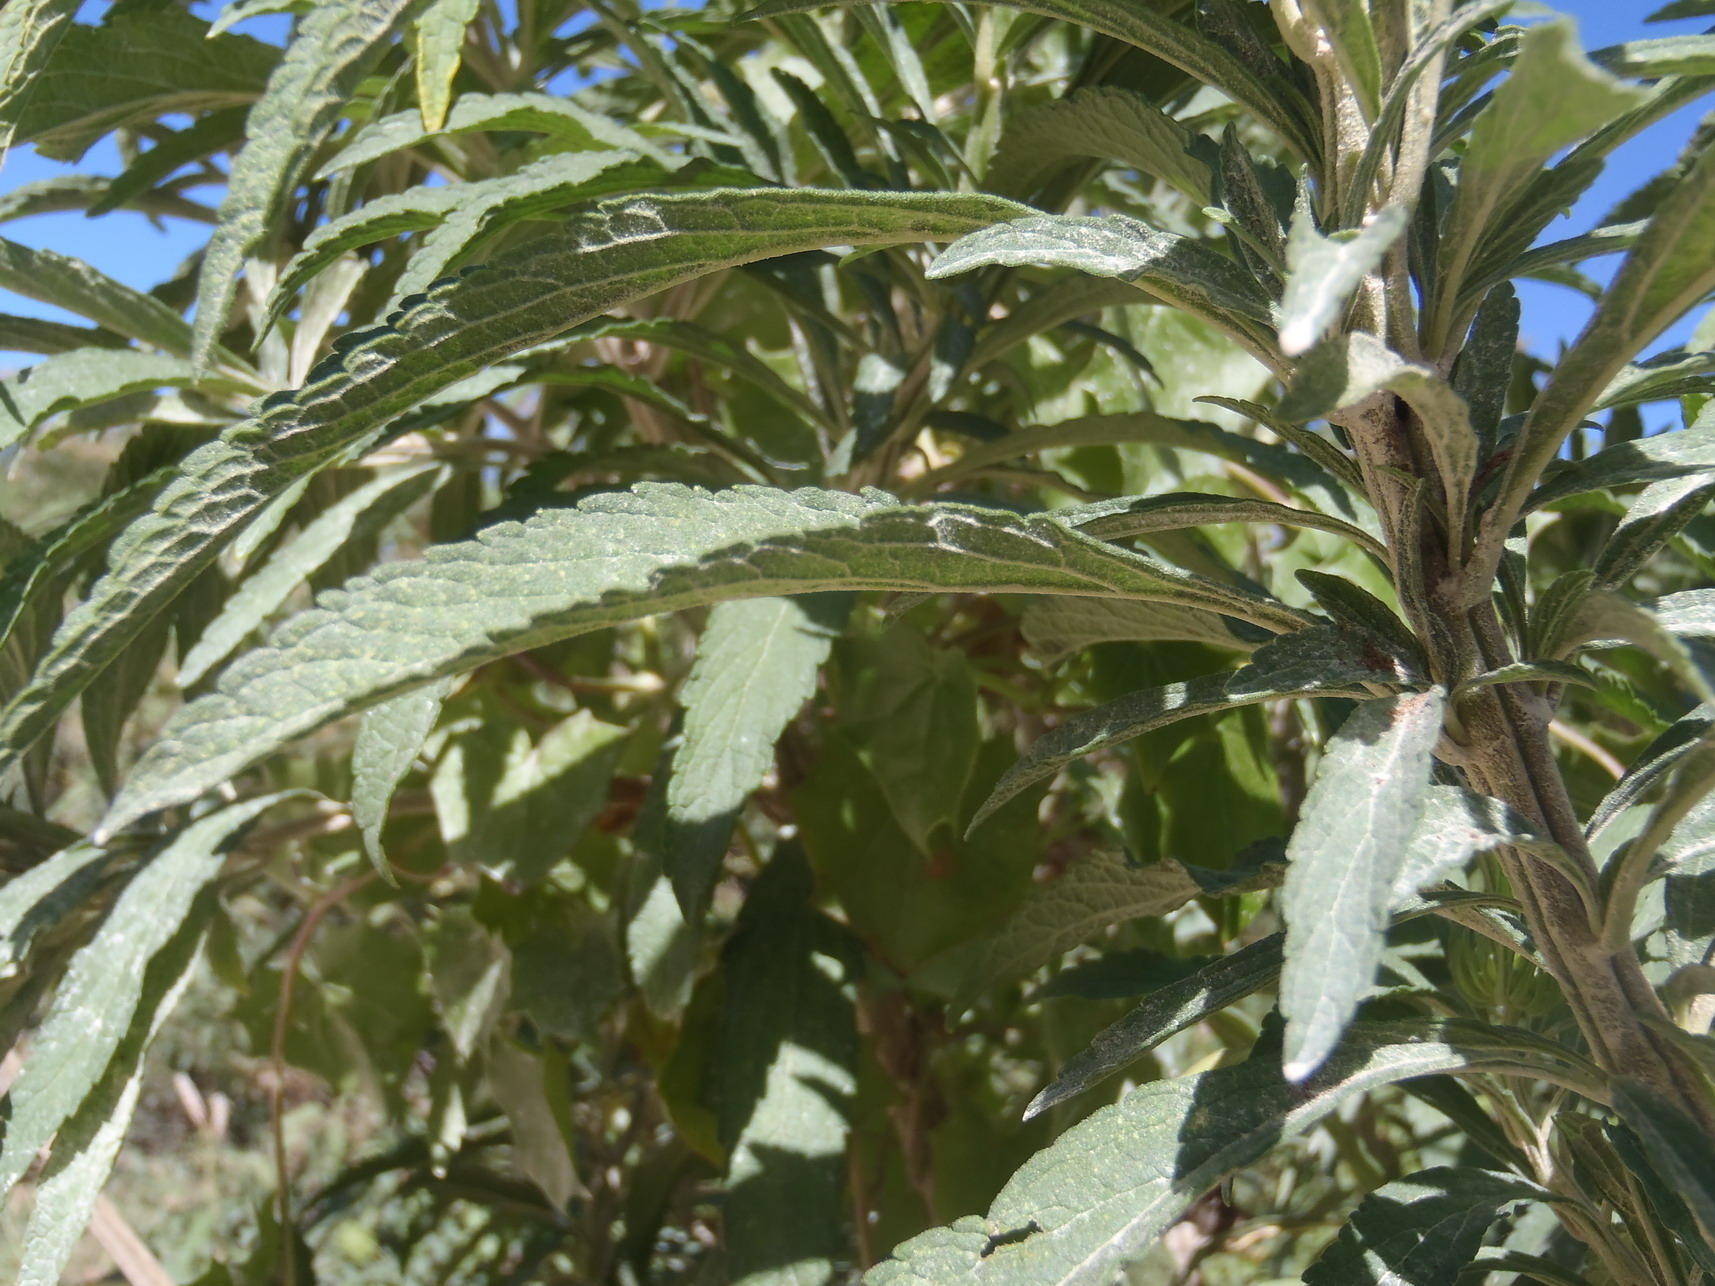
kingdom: Plantae
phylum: Tracheophyta
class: Magnoliopsida
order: Lamiales
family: Lamiaceae
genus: Leonotis
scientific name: Leonotis leonurus
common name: Lion's ear
